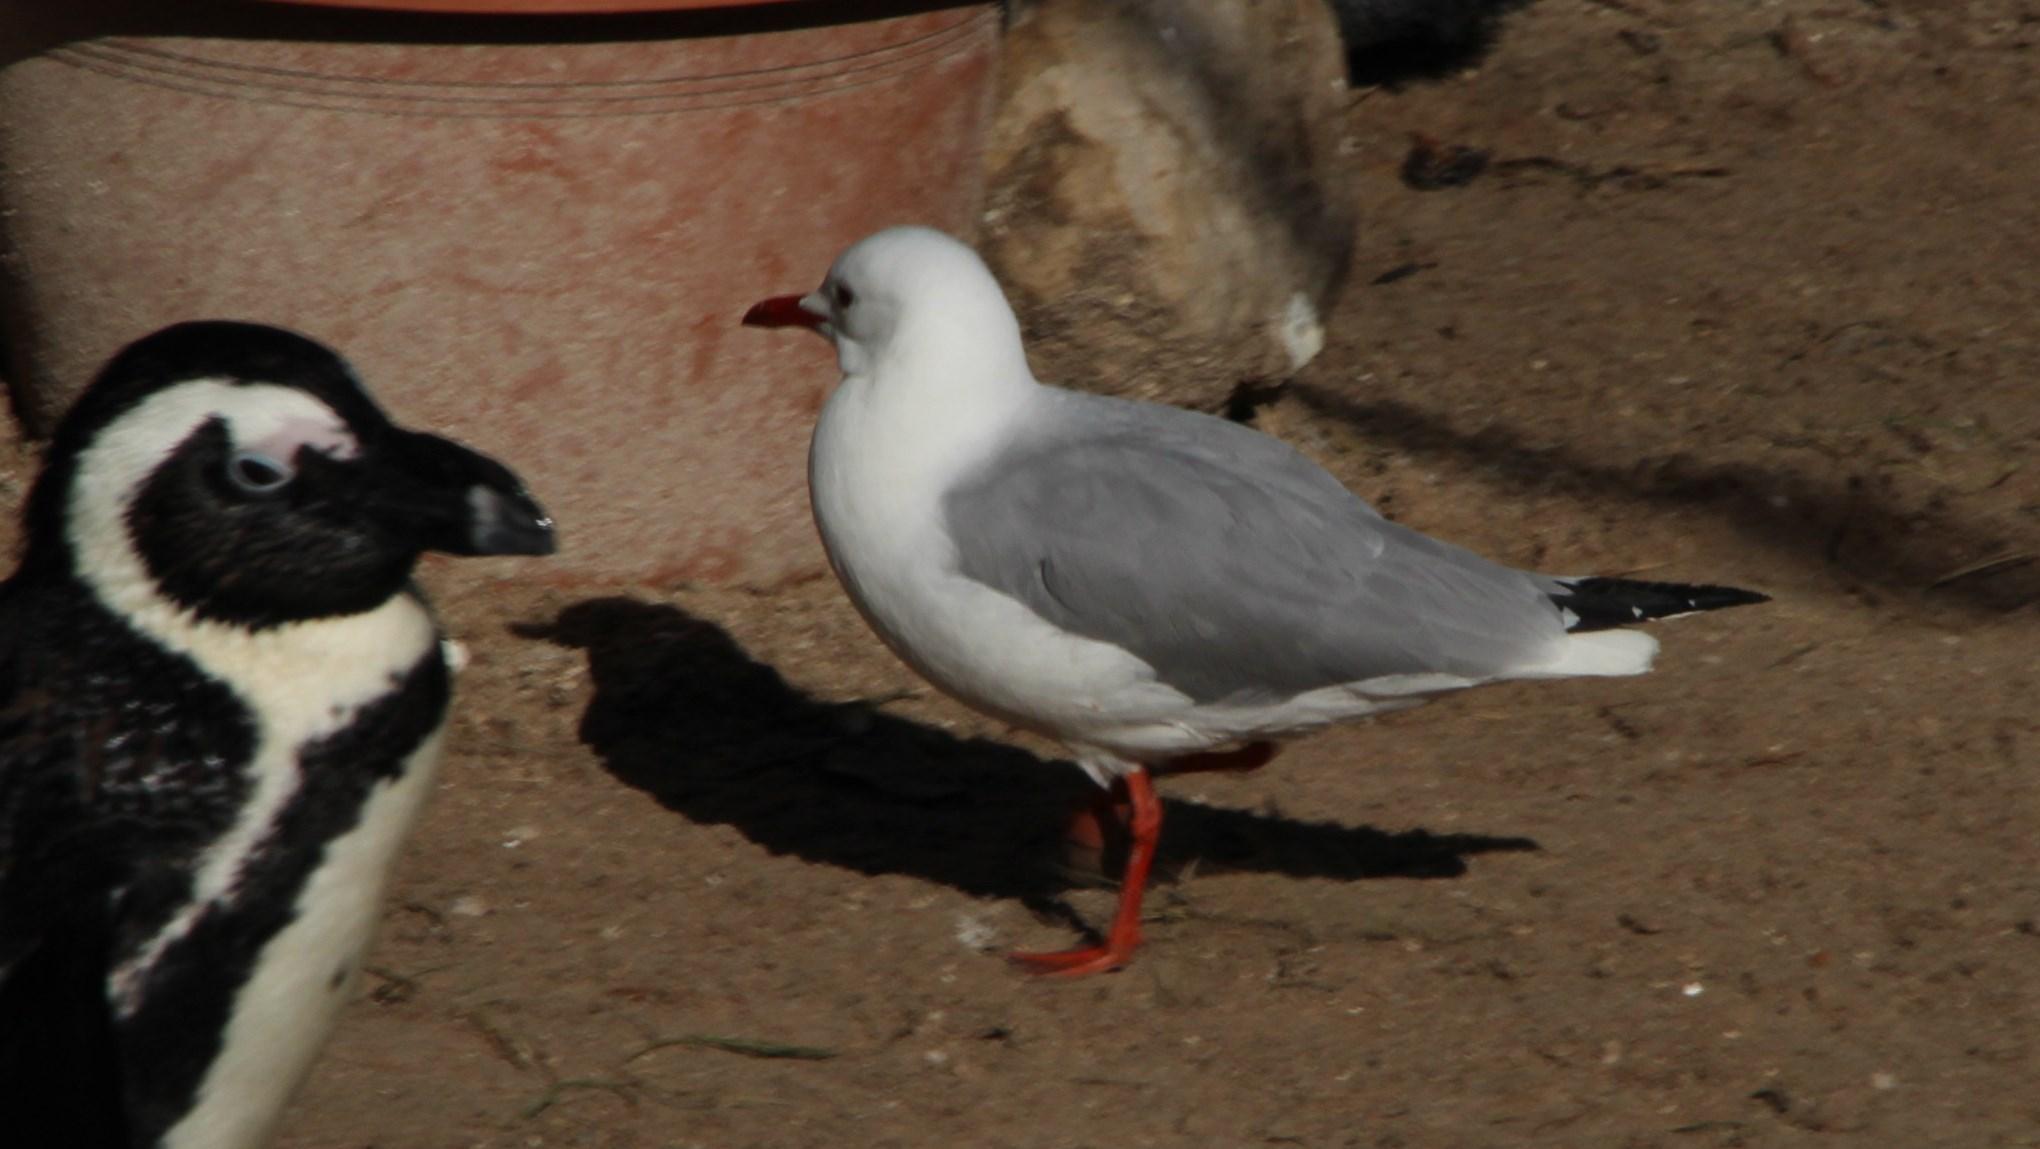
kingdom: Animalia
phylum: Chordata
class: Aves
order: Charadriiformes
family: Laridae
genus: Chroicocephalus
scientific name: Chroicocephalus hartlaubii
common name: Hartlaub's gull
